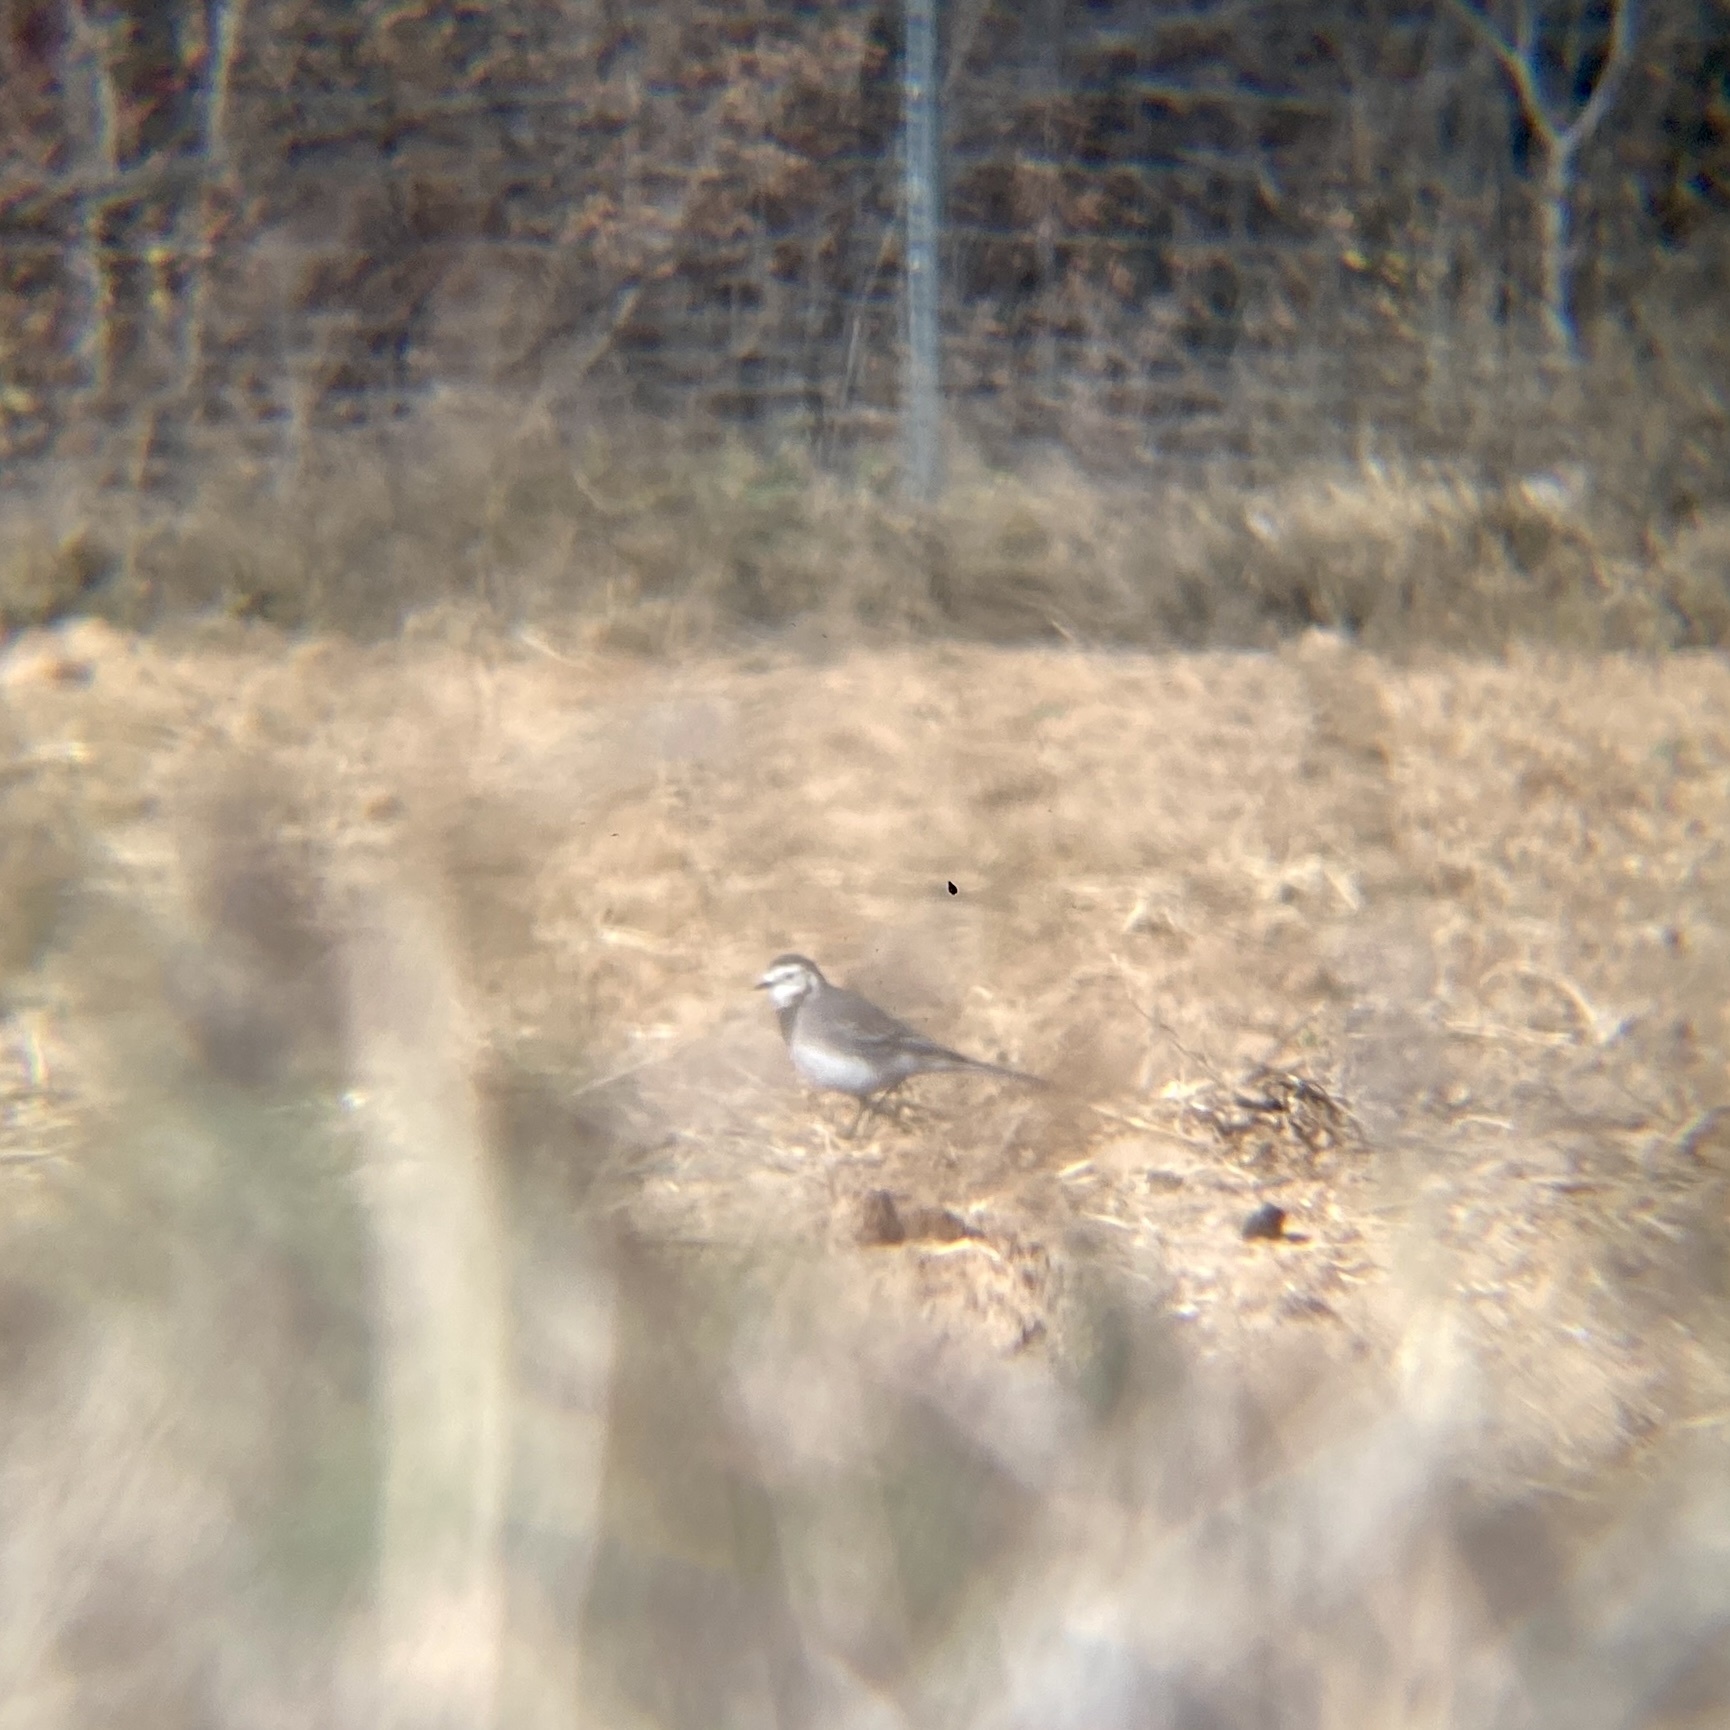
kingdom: Animalia
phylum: Chordata
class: Aves
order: Passeriformes
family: Motacillidae
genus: Motacilla
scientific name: Motacilla alba
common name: White wagtail
